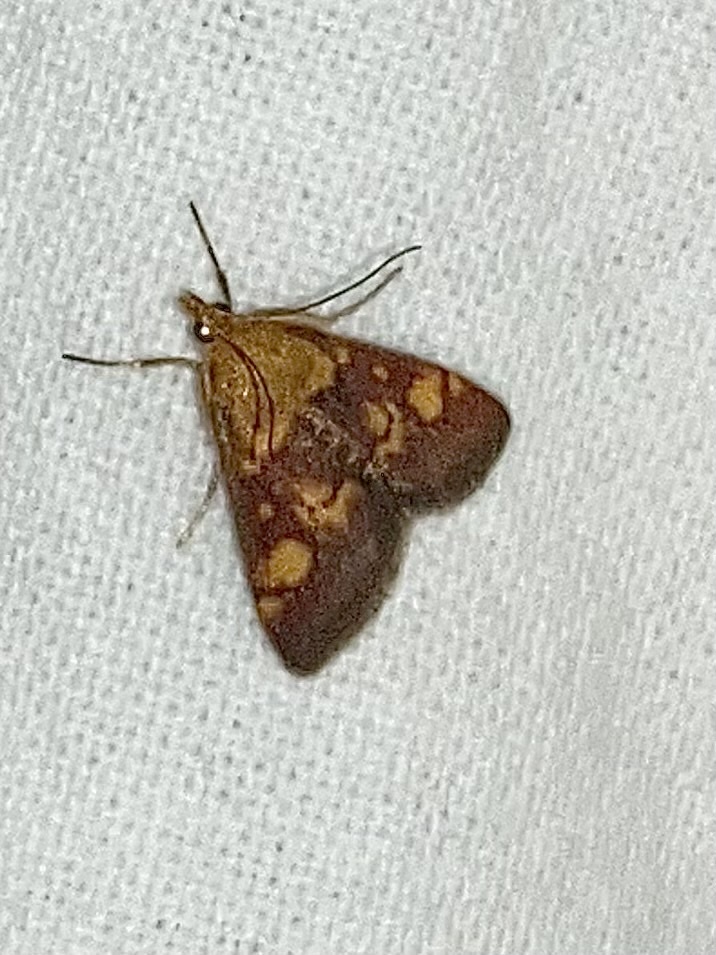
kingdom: Animalia
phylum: Arthropoda
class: Insecta
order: Lepidoptera
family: Crambidae
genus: Pyrausta
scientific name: Pyrausta aurata
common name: Small purple & gold
